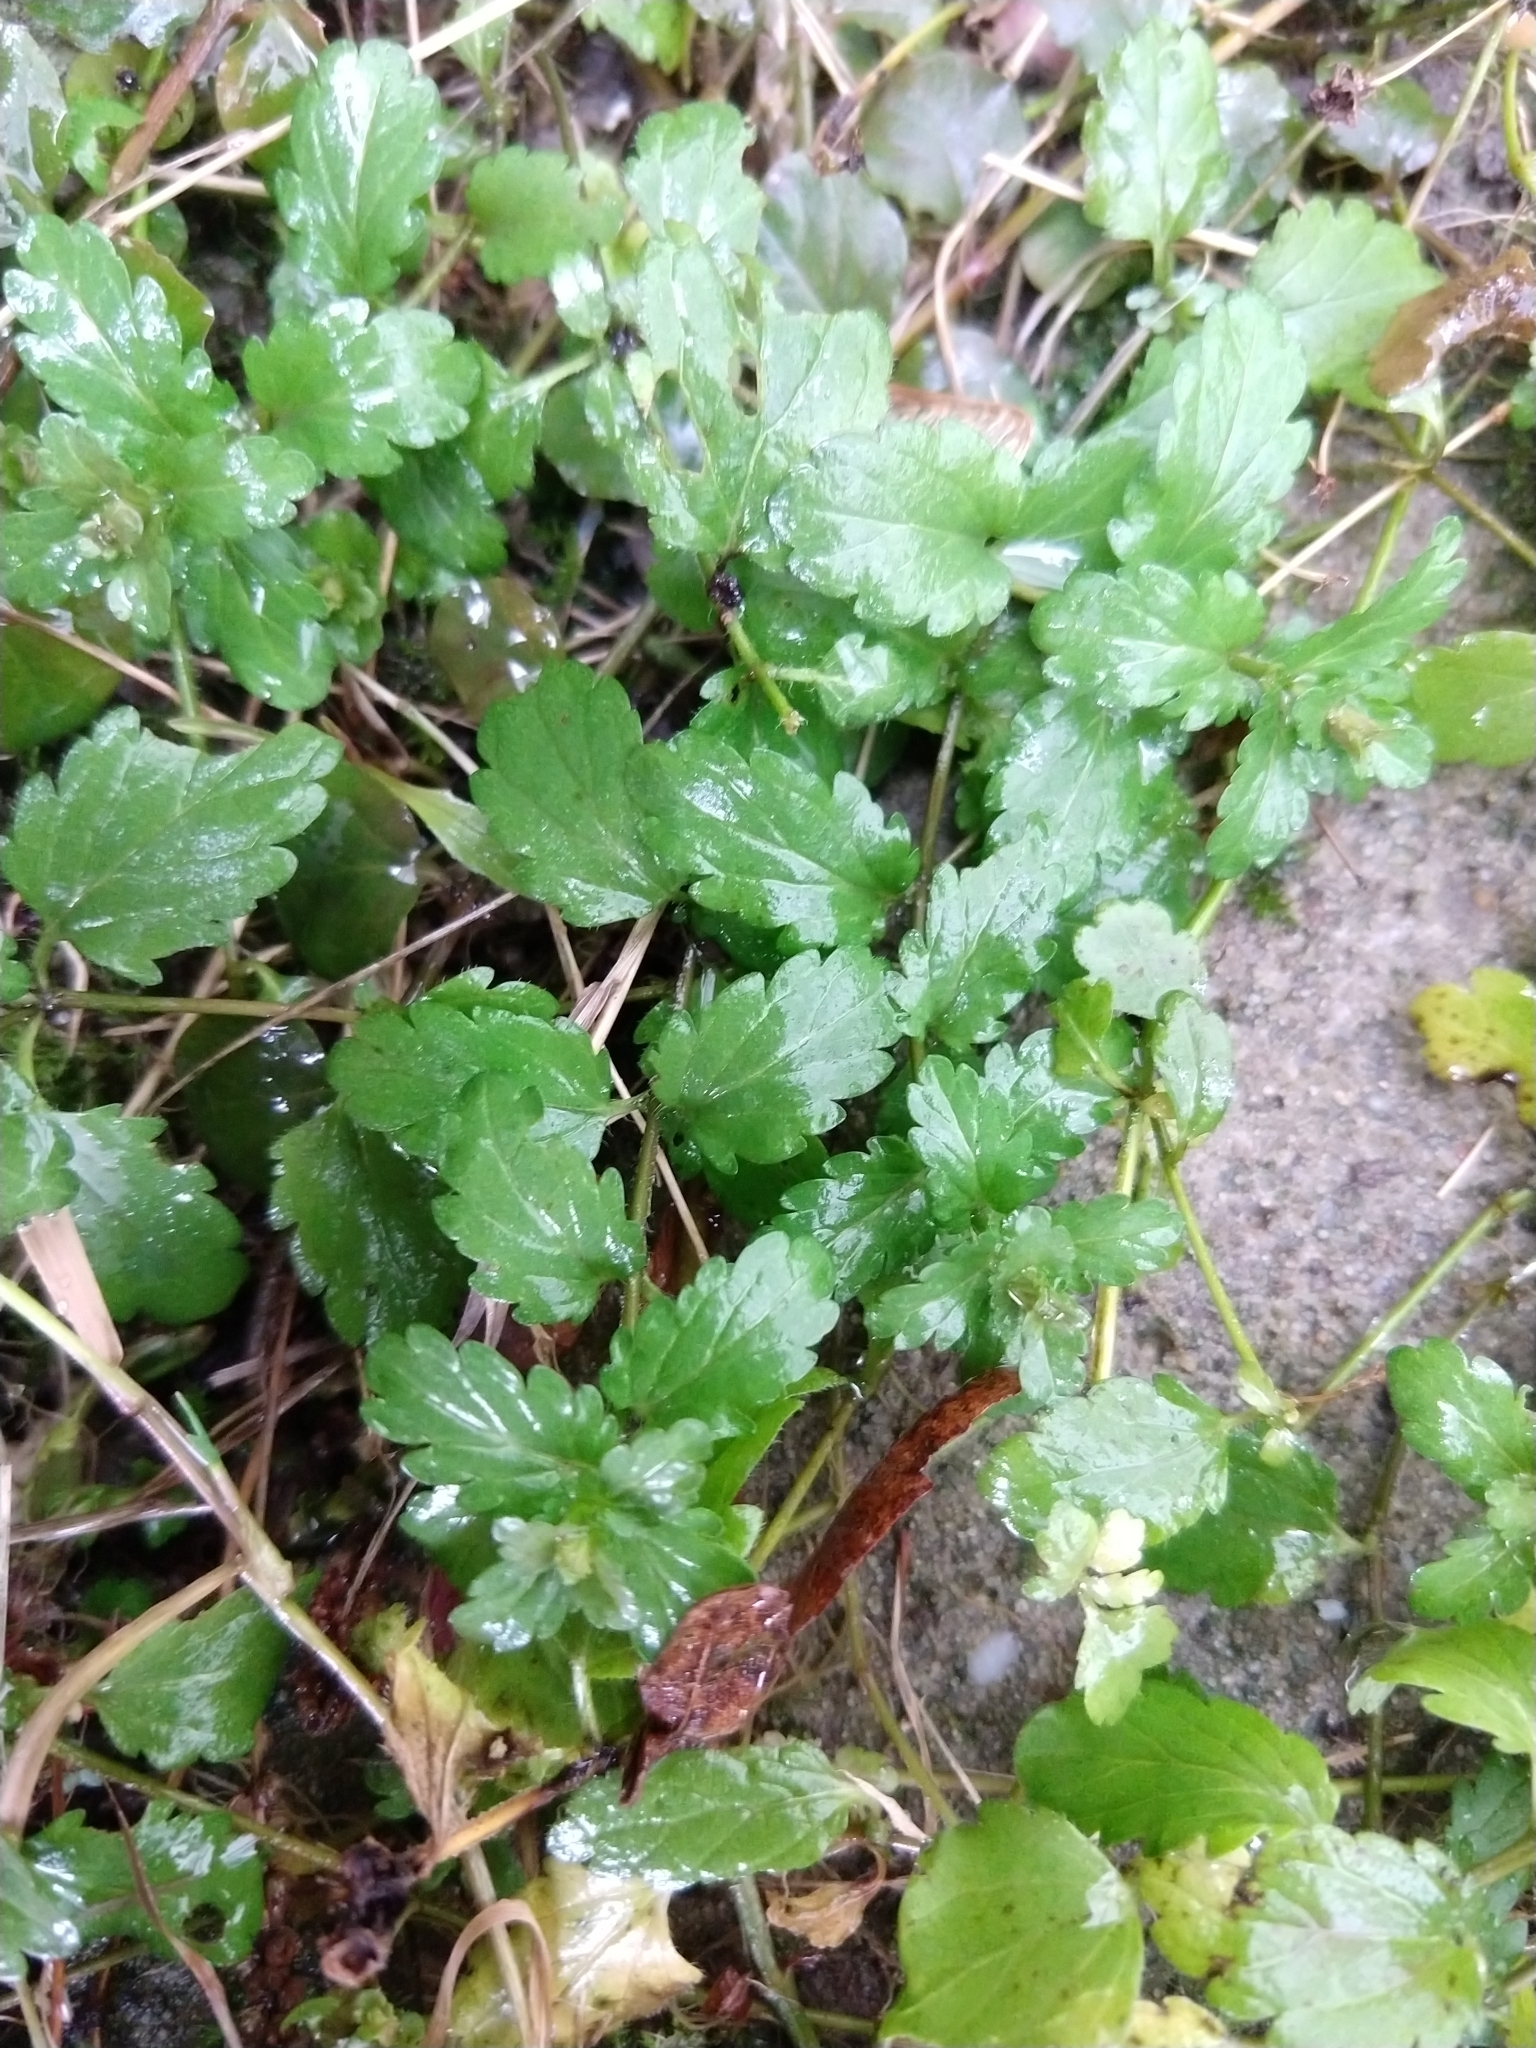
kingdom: Plantae
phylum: Tracheophyta
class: Magnoliopsida
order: Lamiales
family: Plantaginaceae
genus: Veronica
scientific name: Veronica chamaedrys
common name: Germander speedwell
